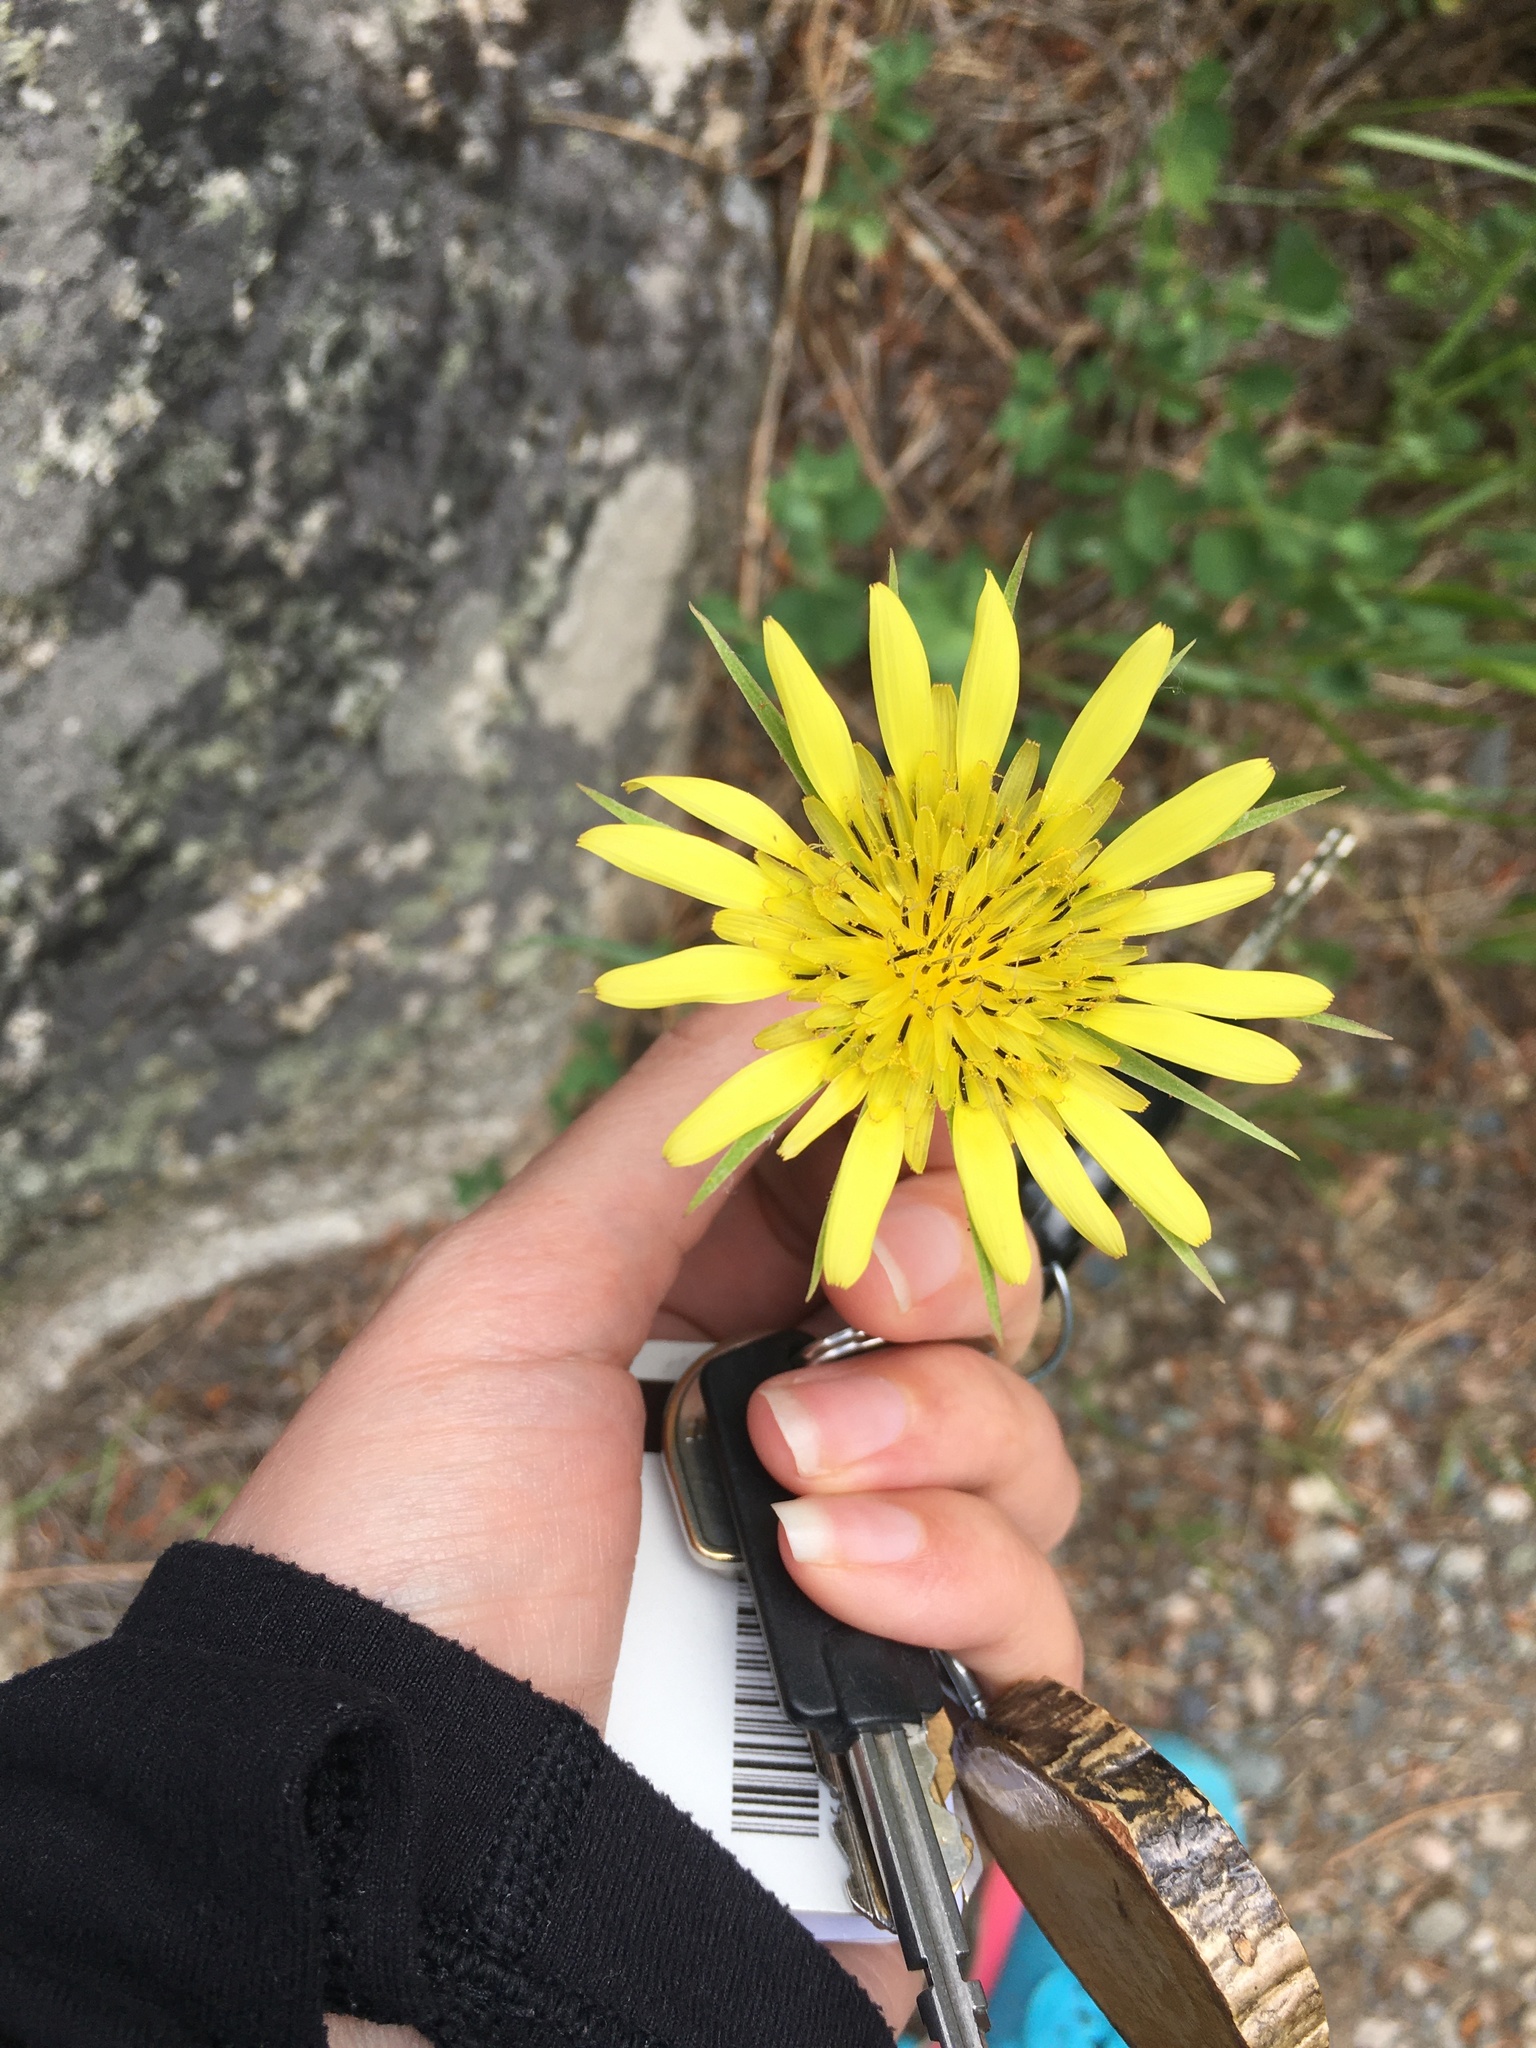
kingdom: Plantae
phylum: Tracheophyta
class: Magnoliopsida
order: Asterales
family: Asteraceae
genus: Tragopogon
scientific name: Tragopogon dubius
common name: Yellow salsify
